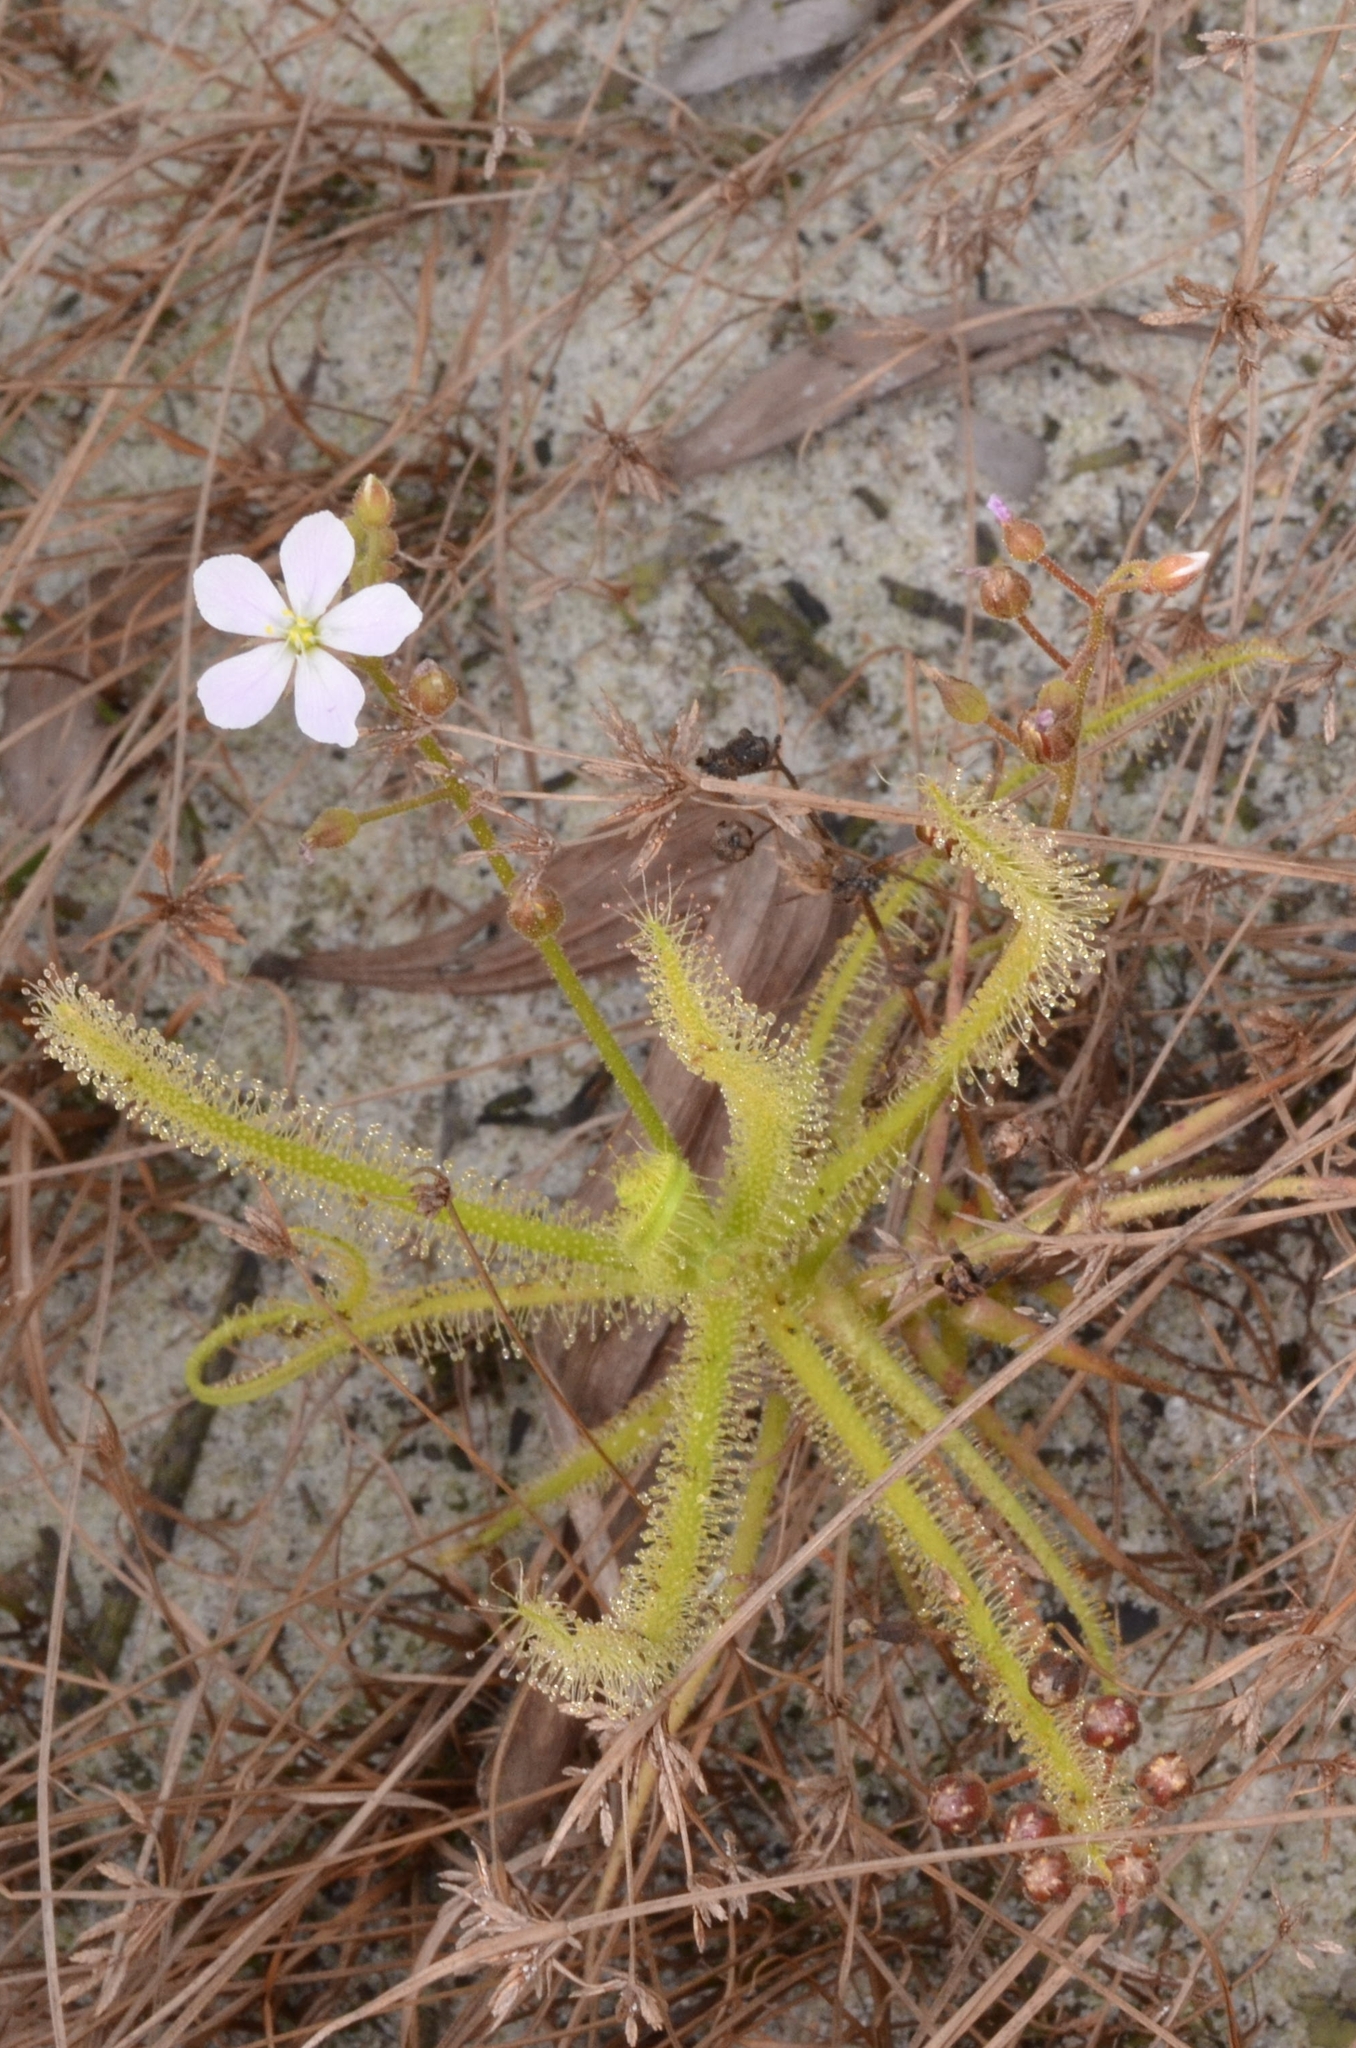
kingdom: Plantae
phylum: Tracheophyta
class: Magnoliopsida
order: Caryophyllales
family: Droseraceae
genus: Drosera
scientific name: Drosera finlaysoniana
